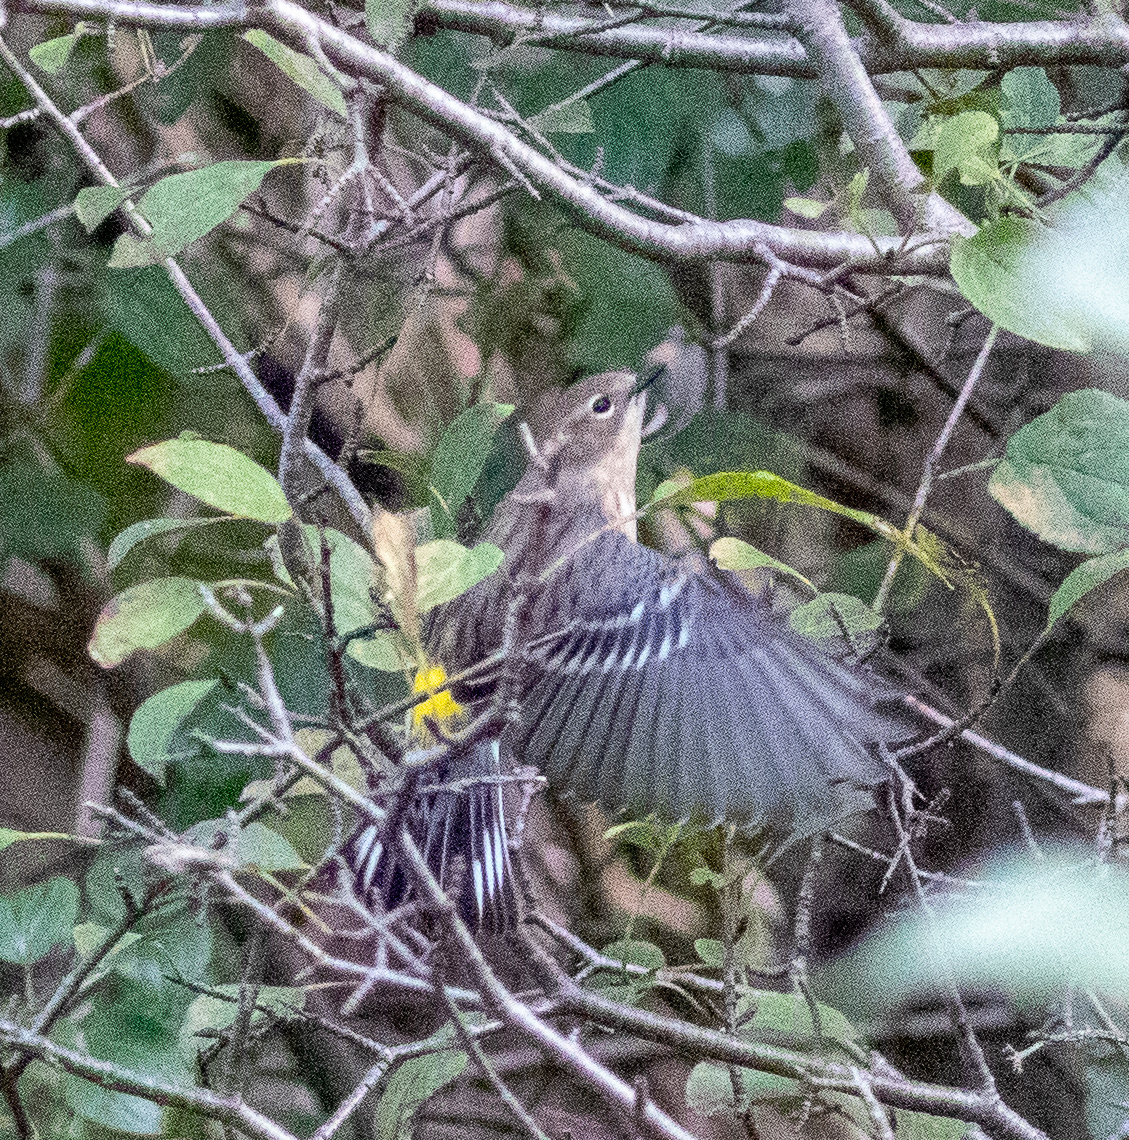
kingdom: Animalia
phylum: Chordata
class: Aves
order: Passeriformes
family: Parulidae
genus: Setophaga
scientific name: Setophaga coronata
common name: Myrtle warbler
